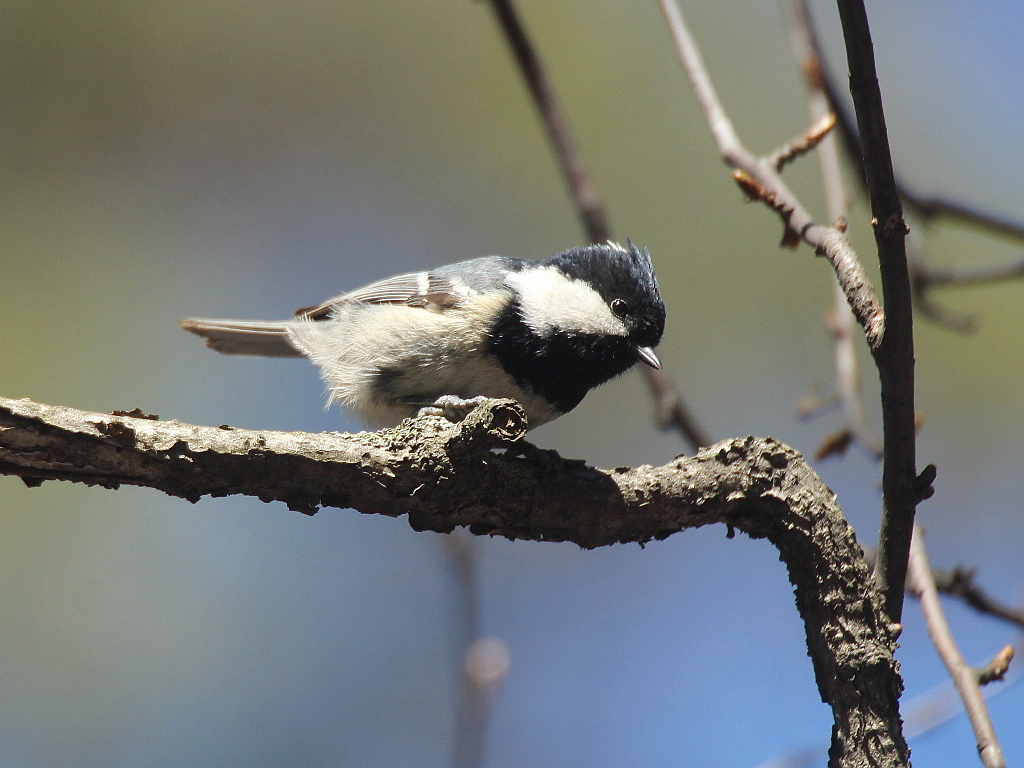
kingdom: Animalia
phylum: Chordata
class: Aves
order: Passeriformes
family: Paridae
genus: Periparus
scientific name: Periparus ater
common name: Coal tit
